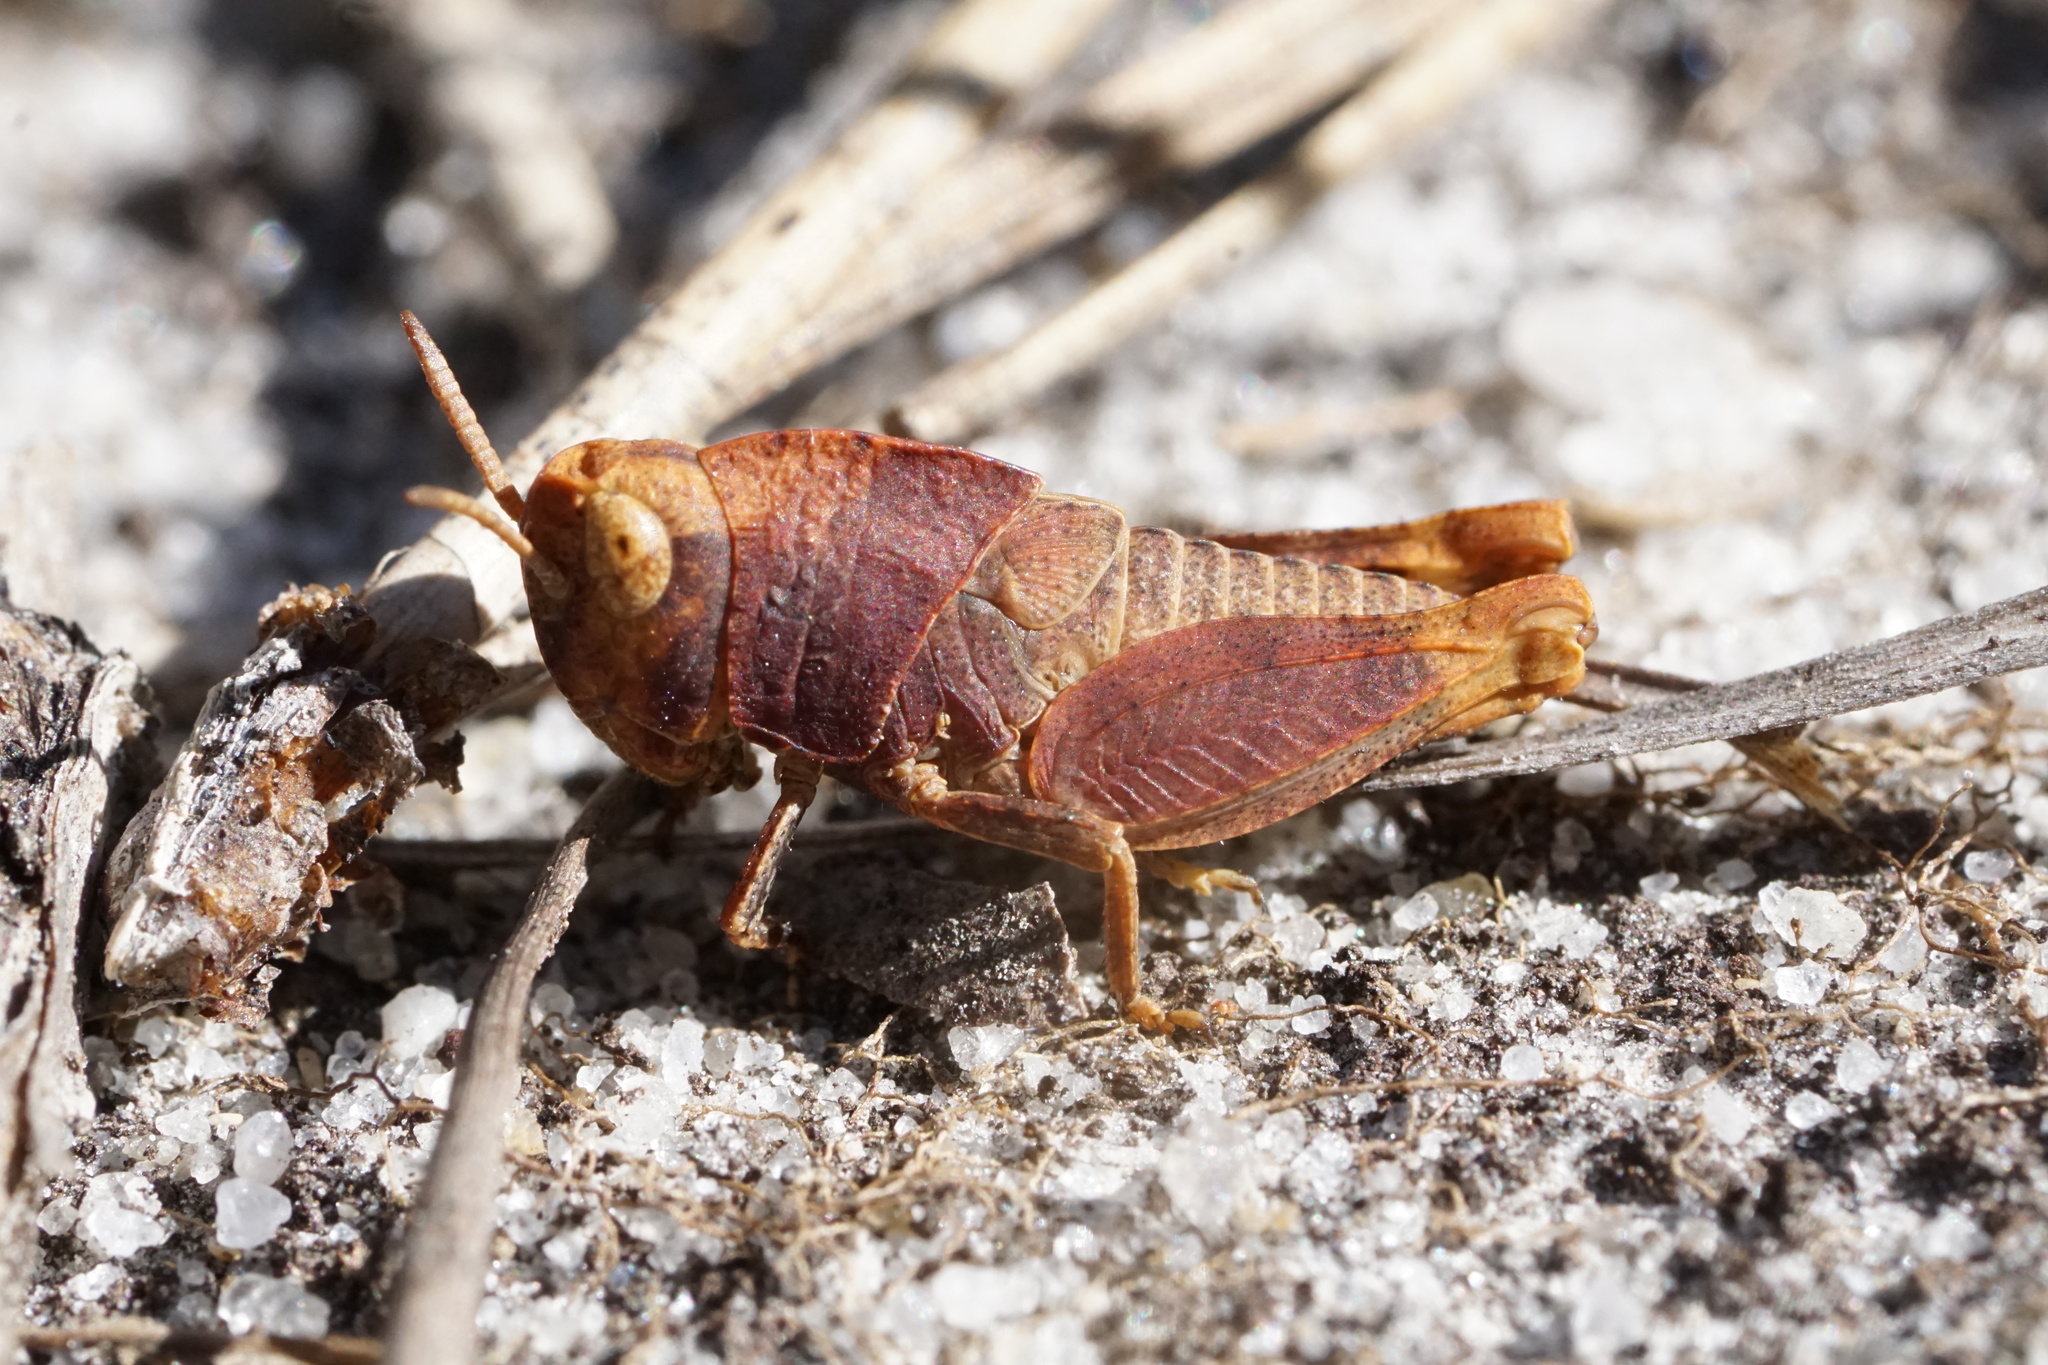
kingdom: Animalia
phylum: Arthropoda
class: Insecta
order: Orthoptera
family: Acrididae
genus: Arphia
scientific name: Arphia sulphurea
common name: Spring yellow-winged locust
